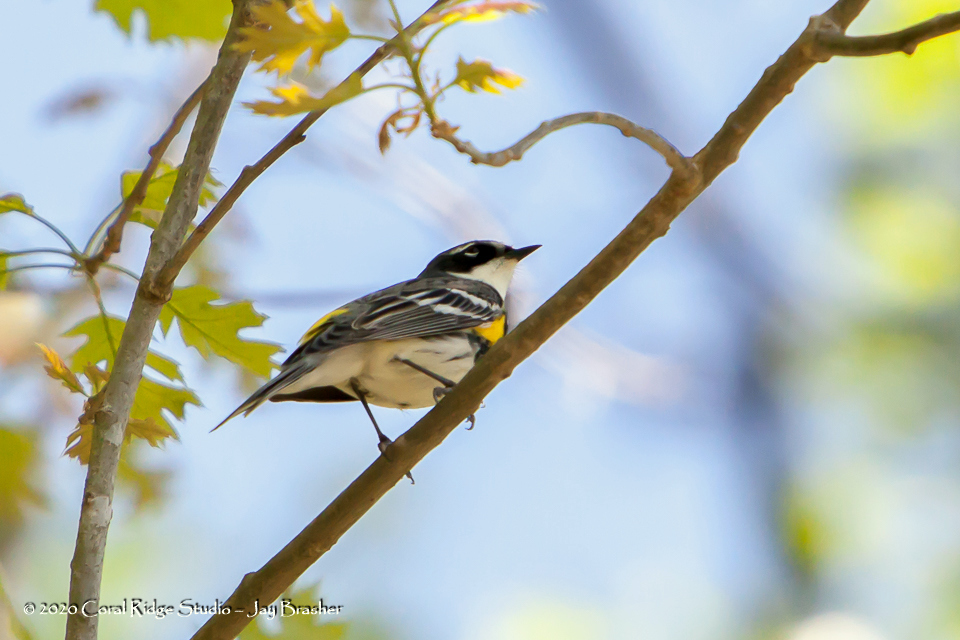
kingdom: Animalia
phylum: Chordata
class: Aves
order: Passeriformes
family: Parulidae
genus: Setophaga
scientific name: Setophaga coronata
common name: Myrtle warbler
